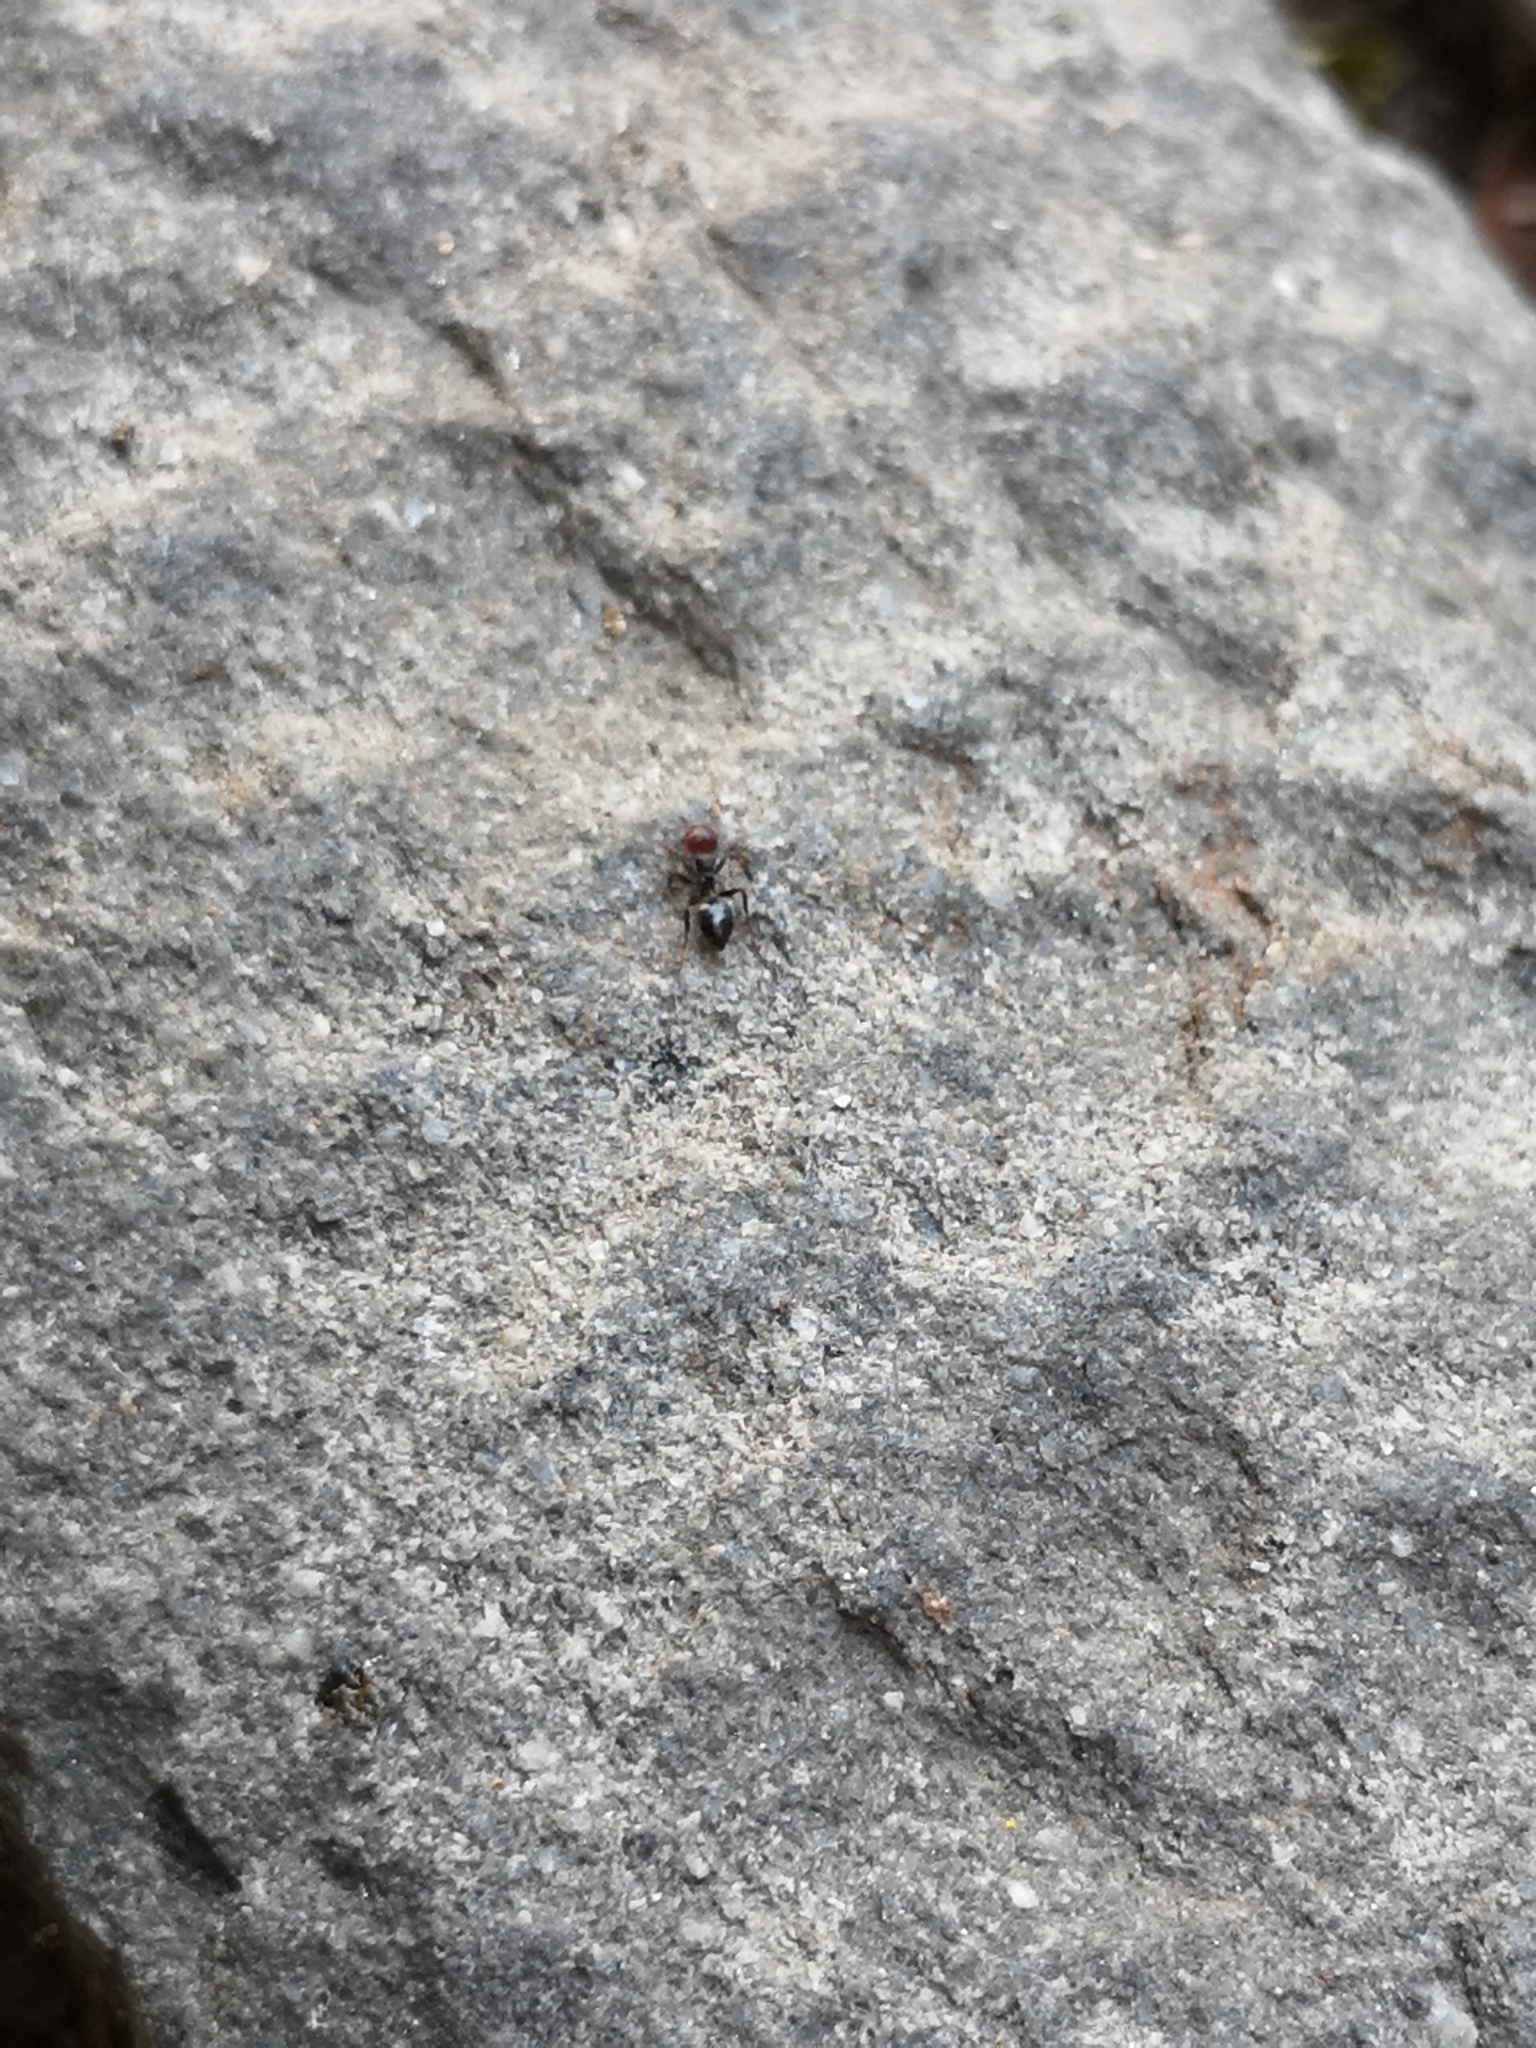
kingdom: Animalia
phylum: Arthropoda
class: Insecta
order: Hymenoptera
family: Formicidae
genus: Crematogaster
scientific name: Crematogaster scutellaris
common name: Fourmi du liège
